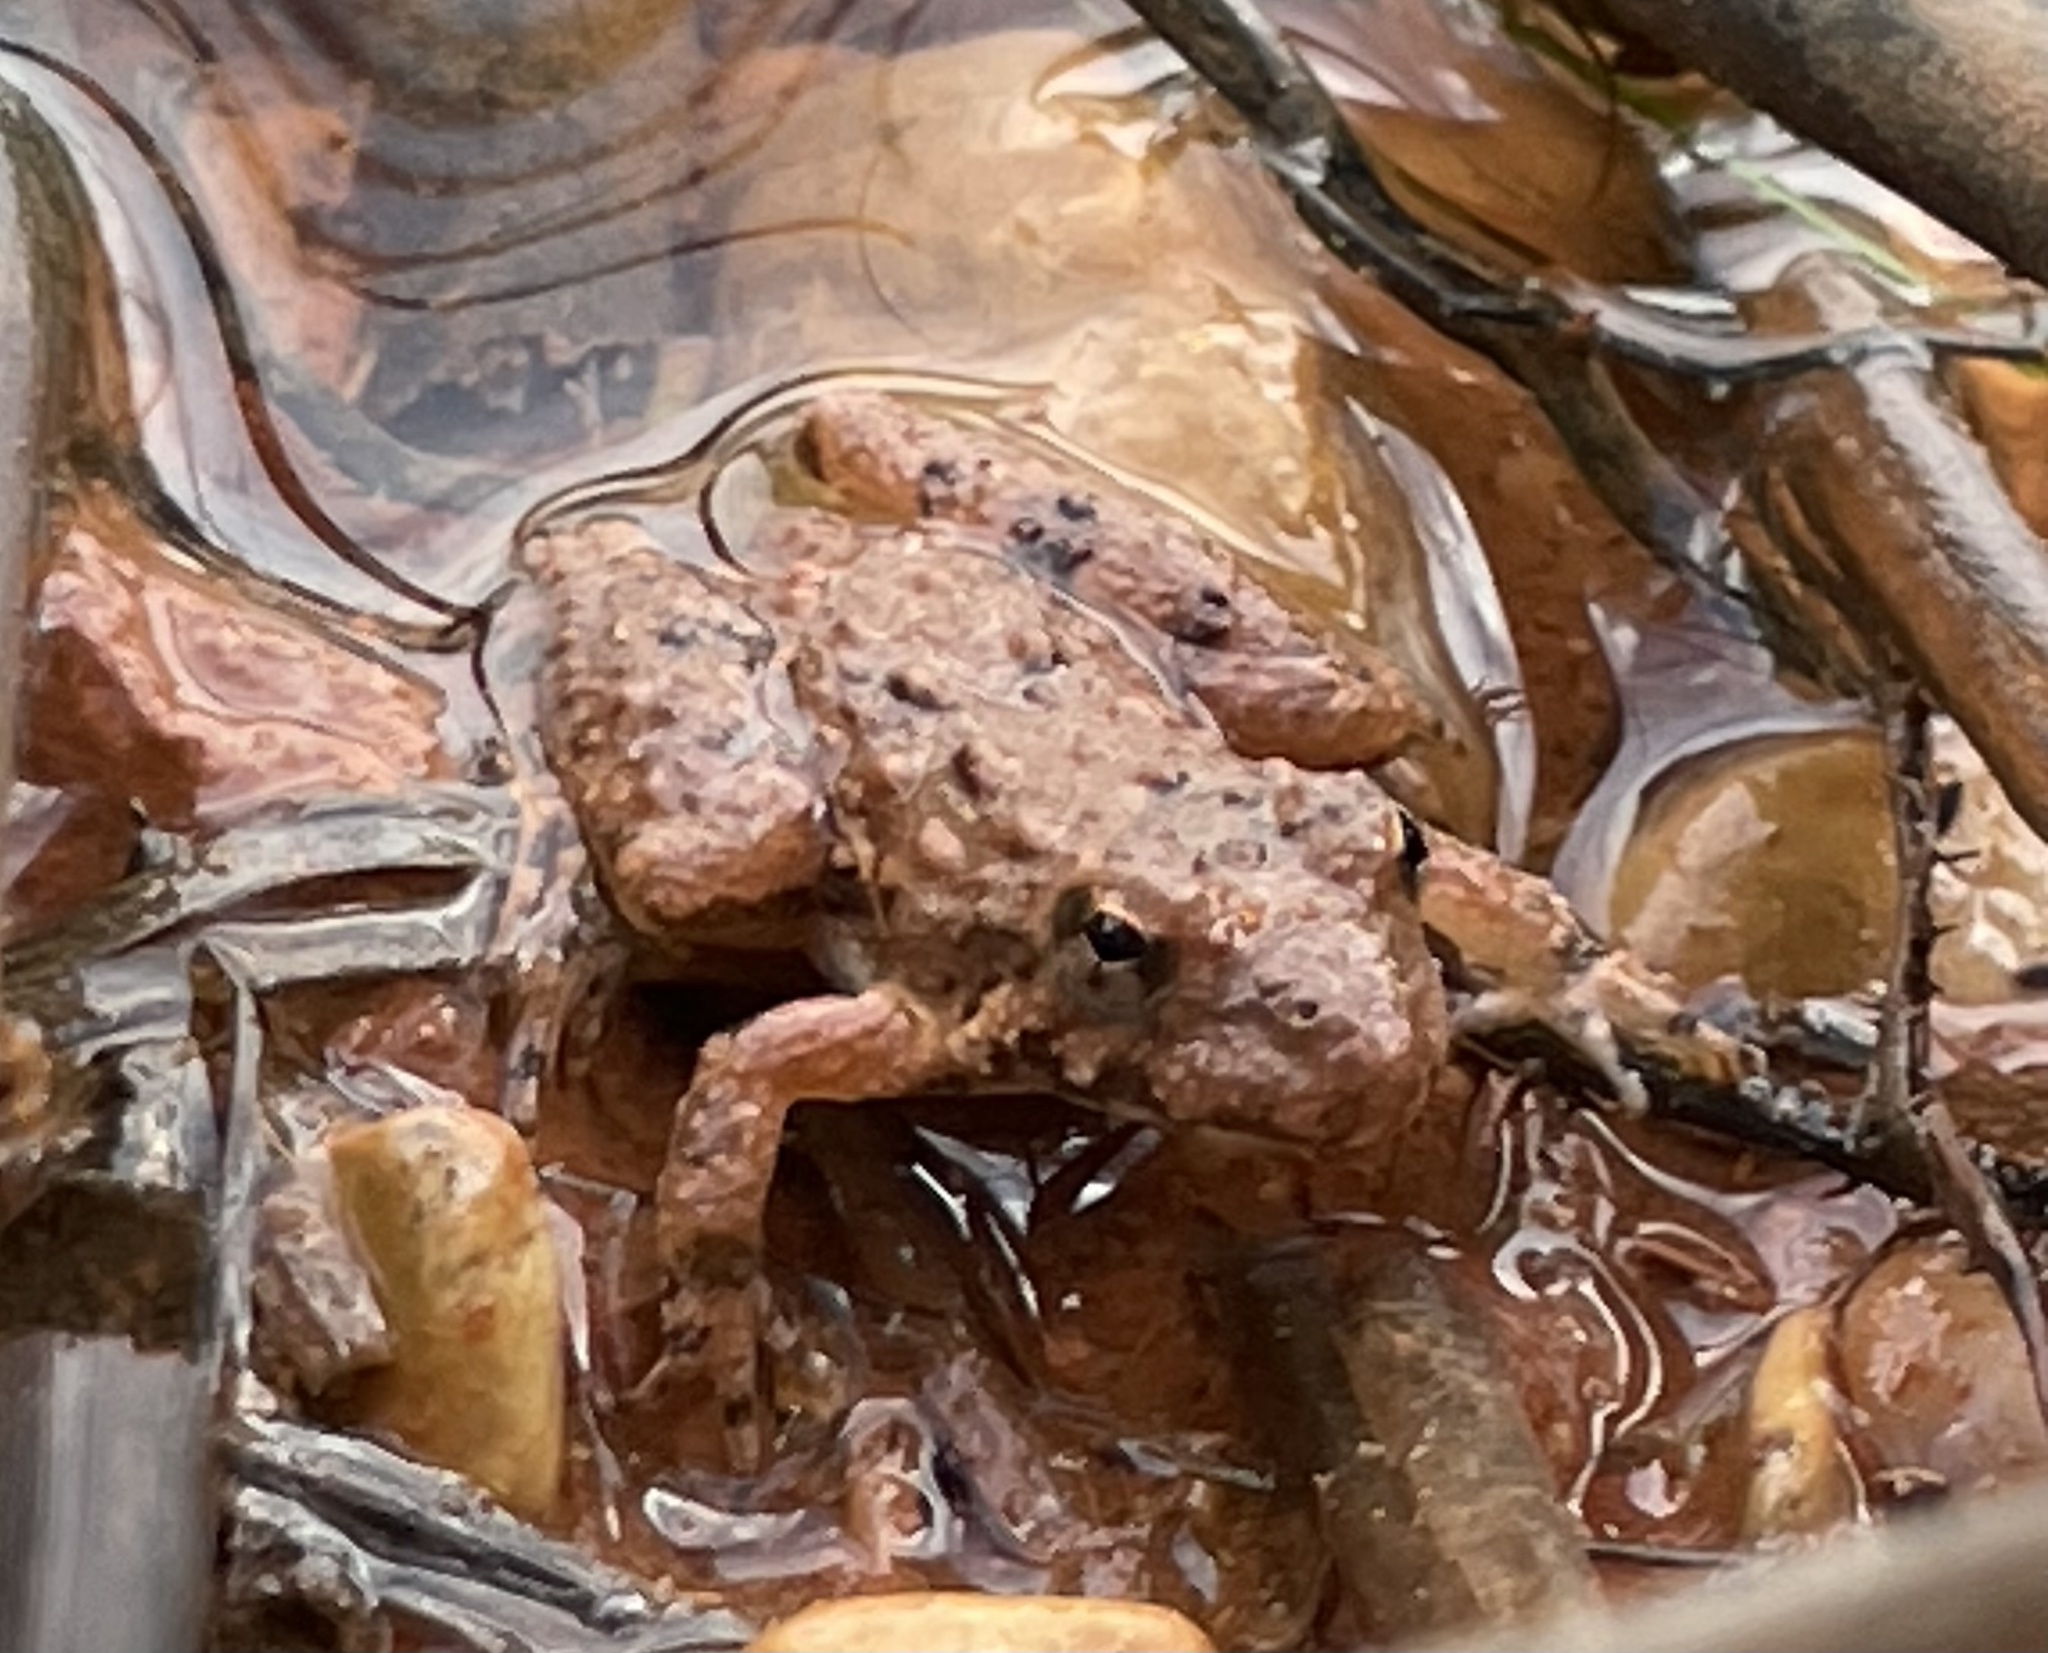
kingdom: Animalia
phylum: Chordata
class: Amphibia
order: Anura
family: Hylidae
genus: Acris
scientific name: Acris blanchardi
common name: Blanchard's cricket frog
